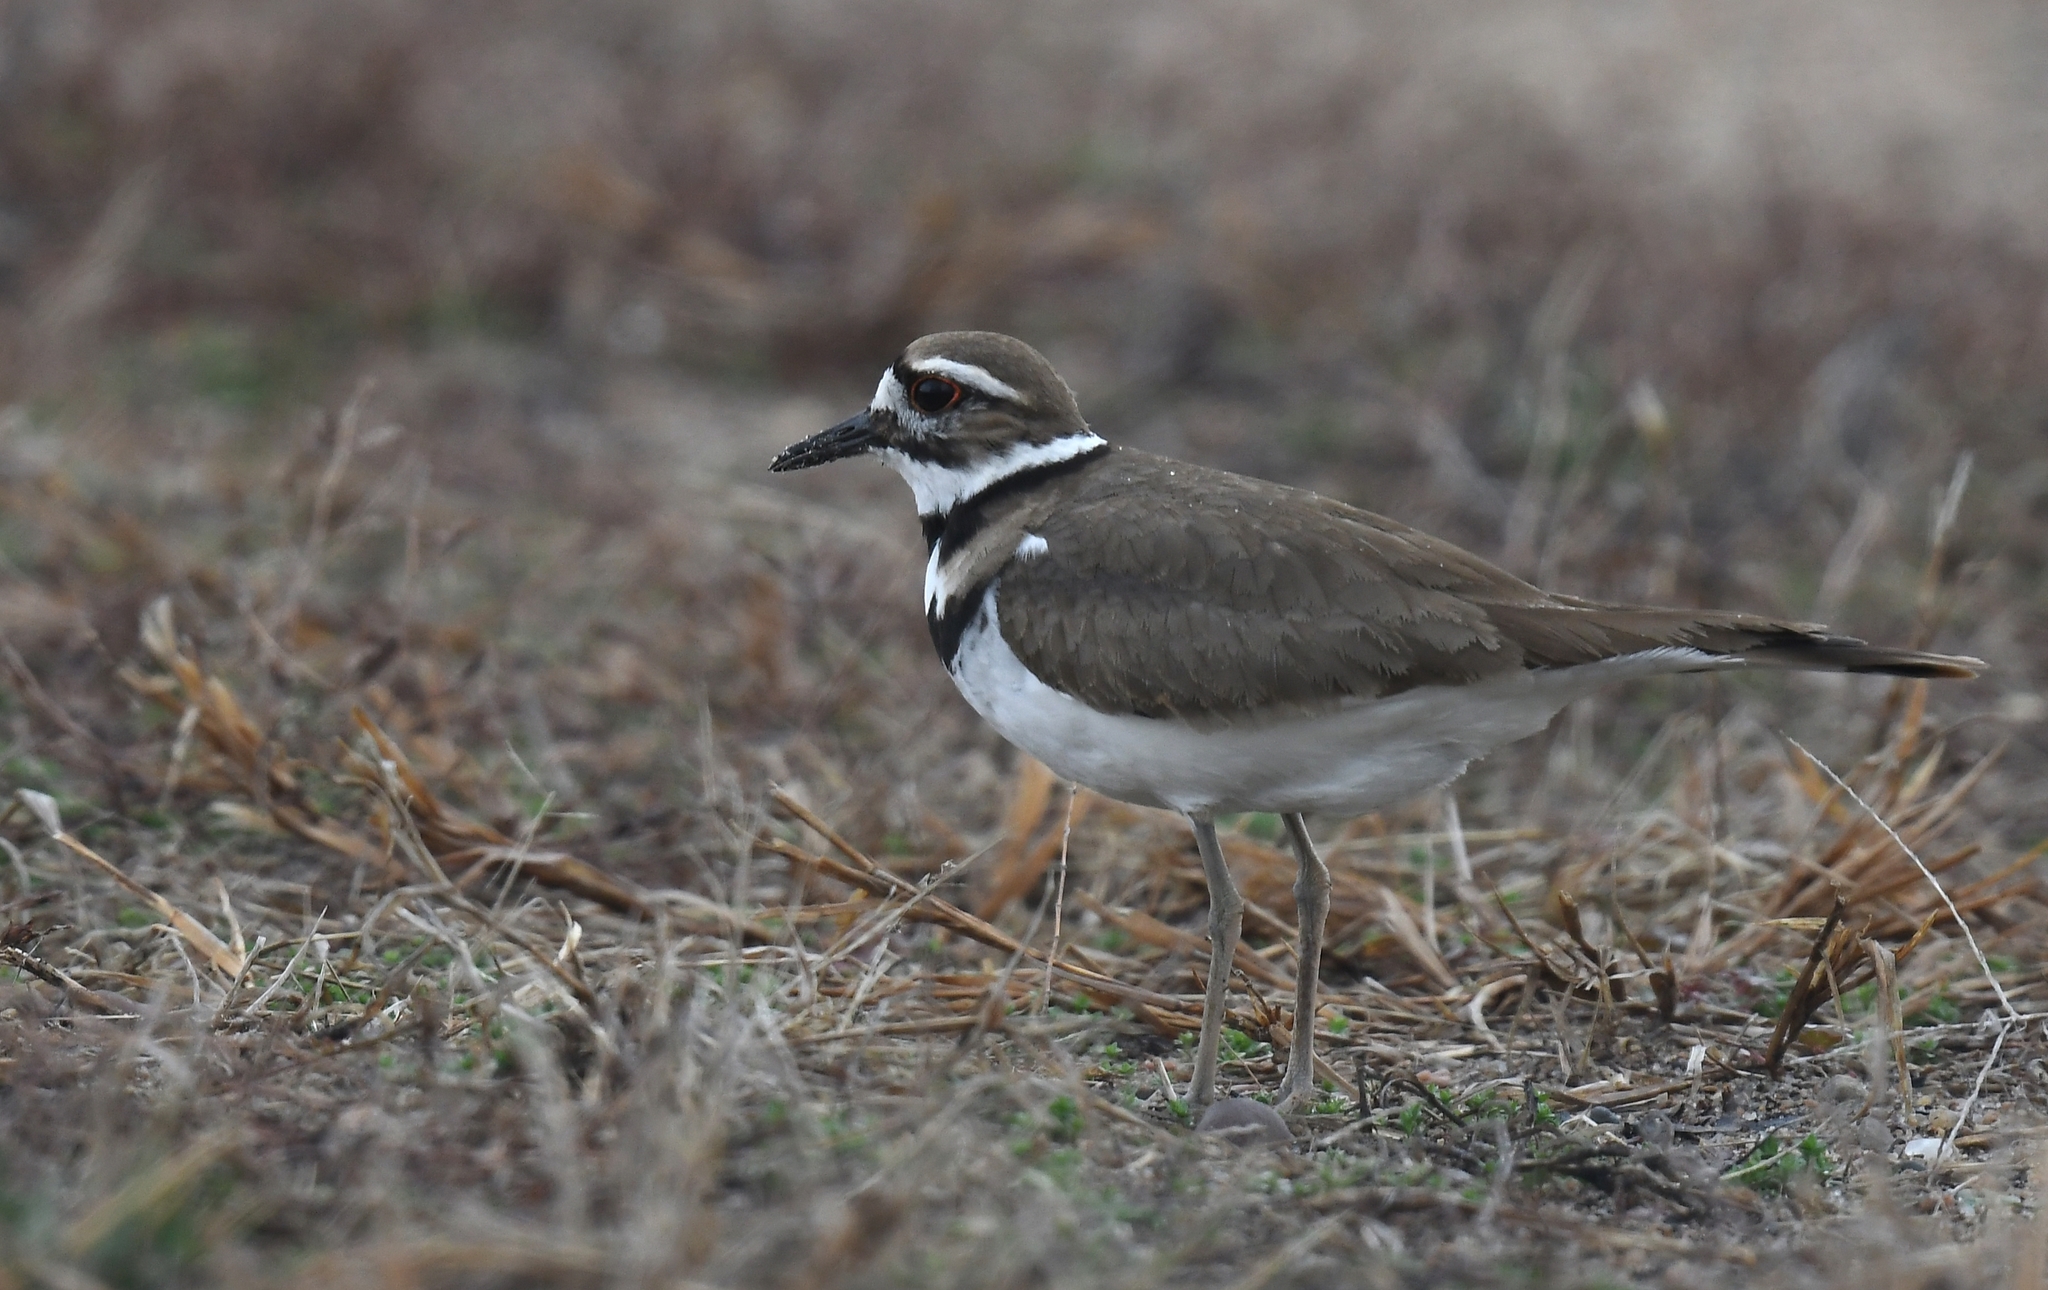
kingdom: Animalia
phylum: Chordata
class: Aves
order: Charadriiformes
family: Charadriidae
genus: Charadrius
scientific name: Charadrius vociferus
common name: Killdeer
